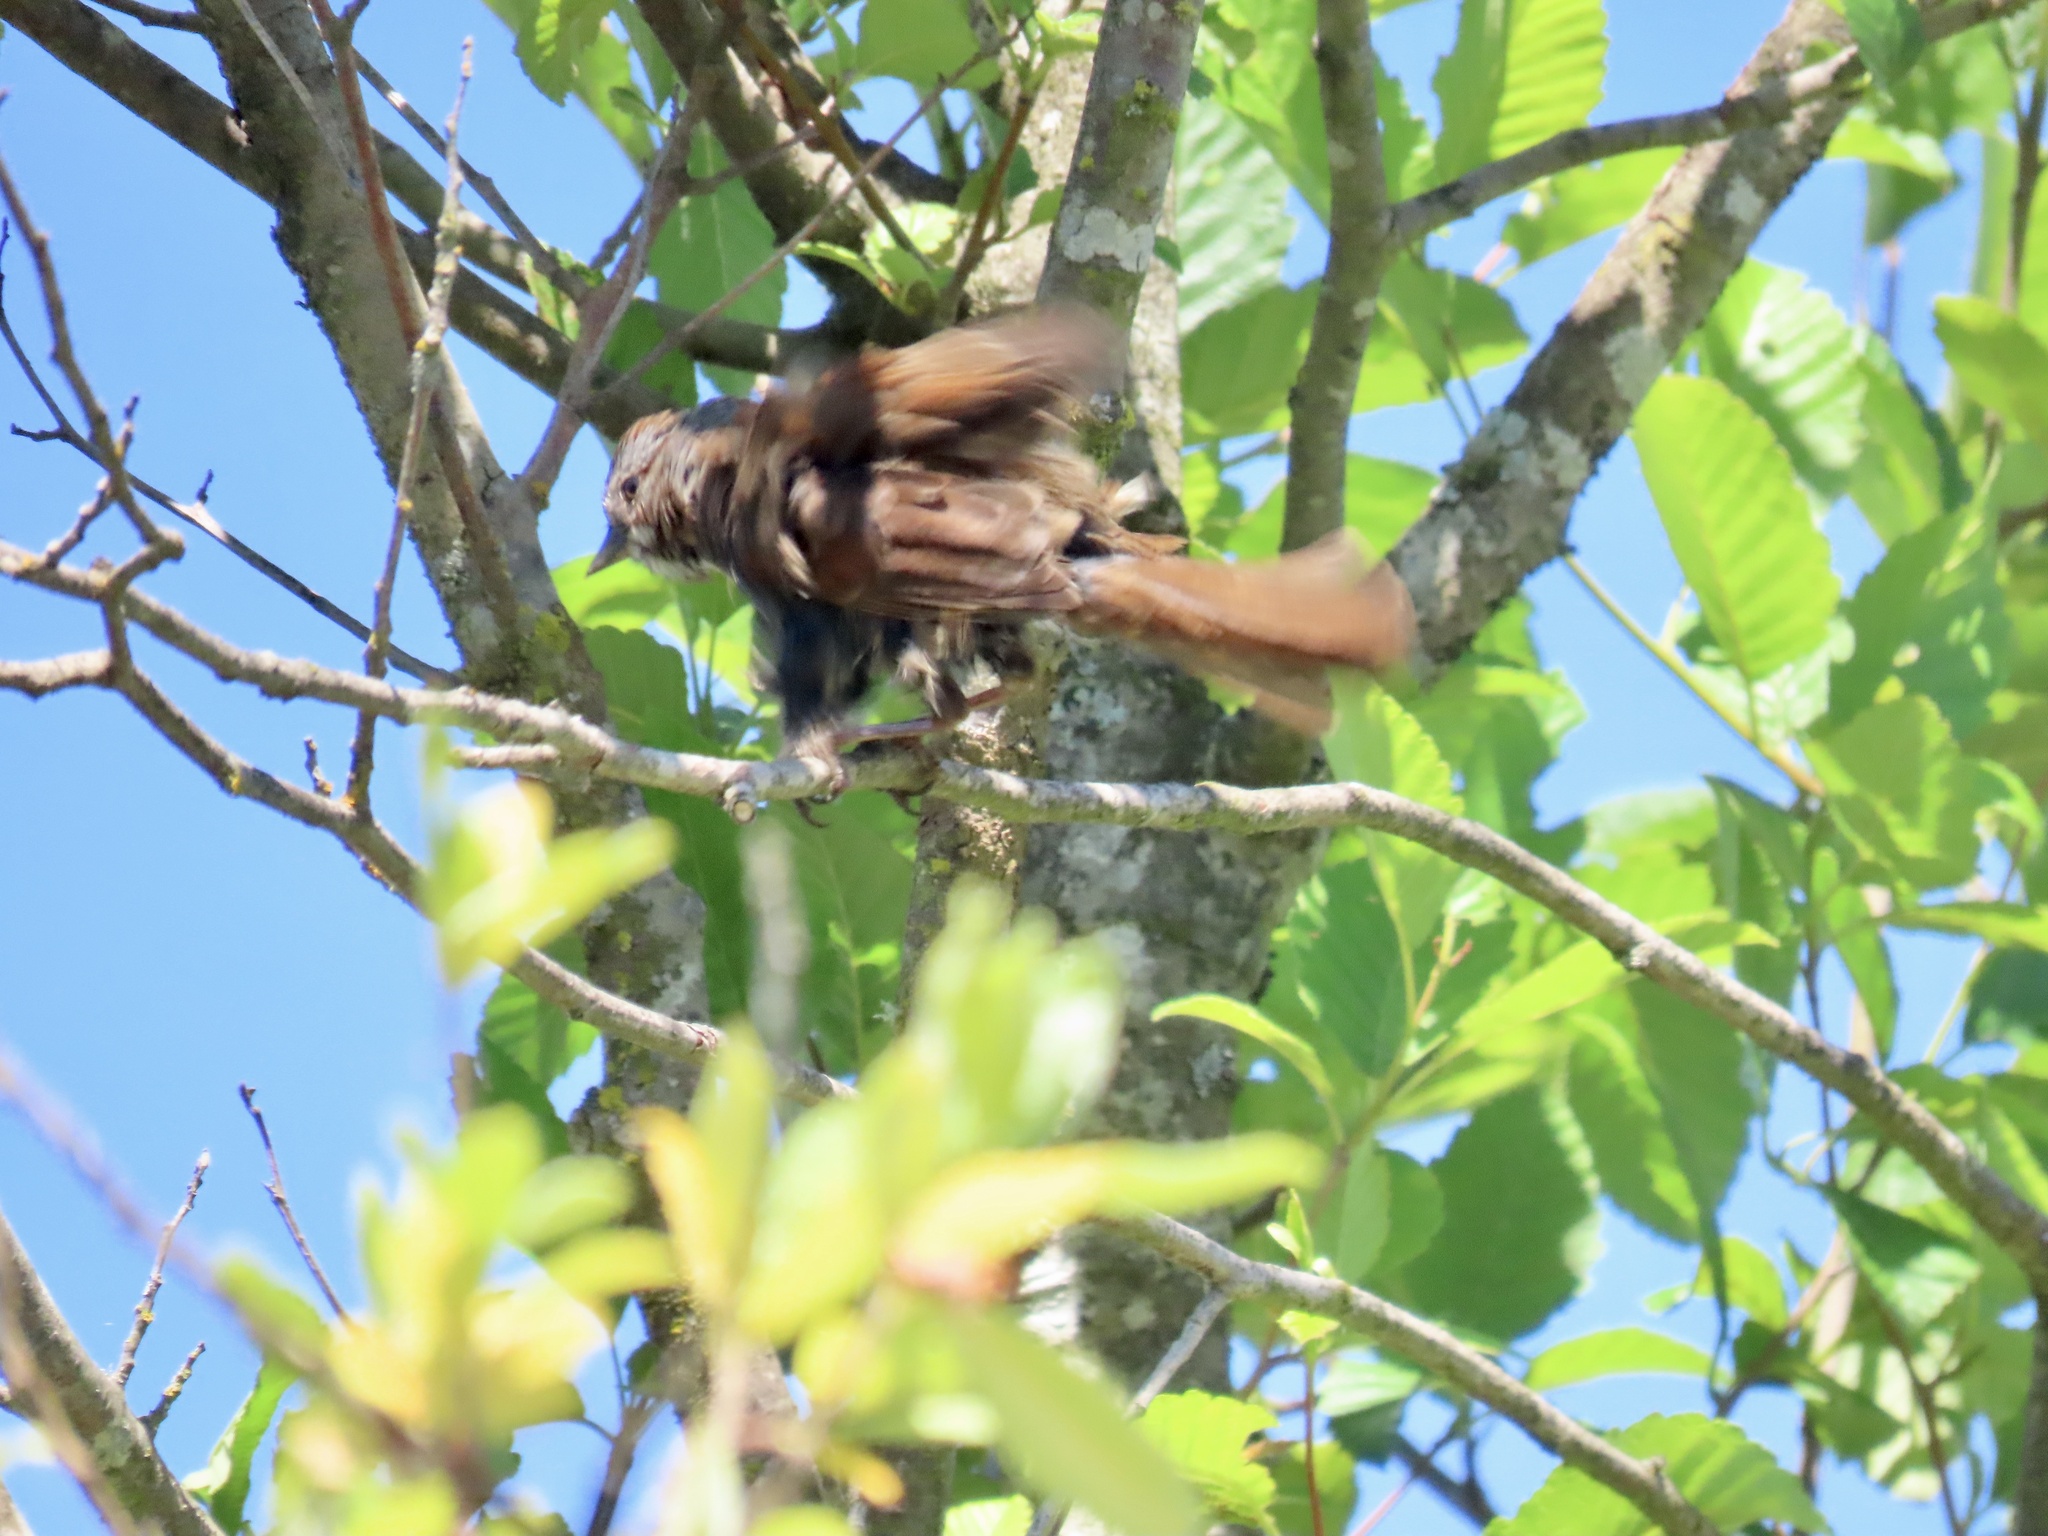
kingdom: Animalia
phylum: Chordata
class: Aves
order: Passeriformes
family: Passerellidae
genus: Melospiza
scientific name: Melospiza melodia
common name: Song sparrow
